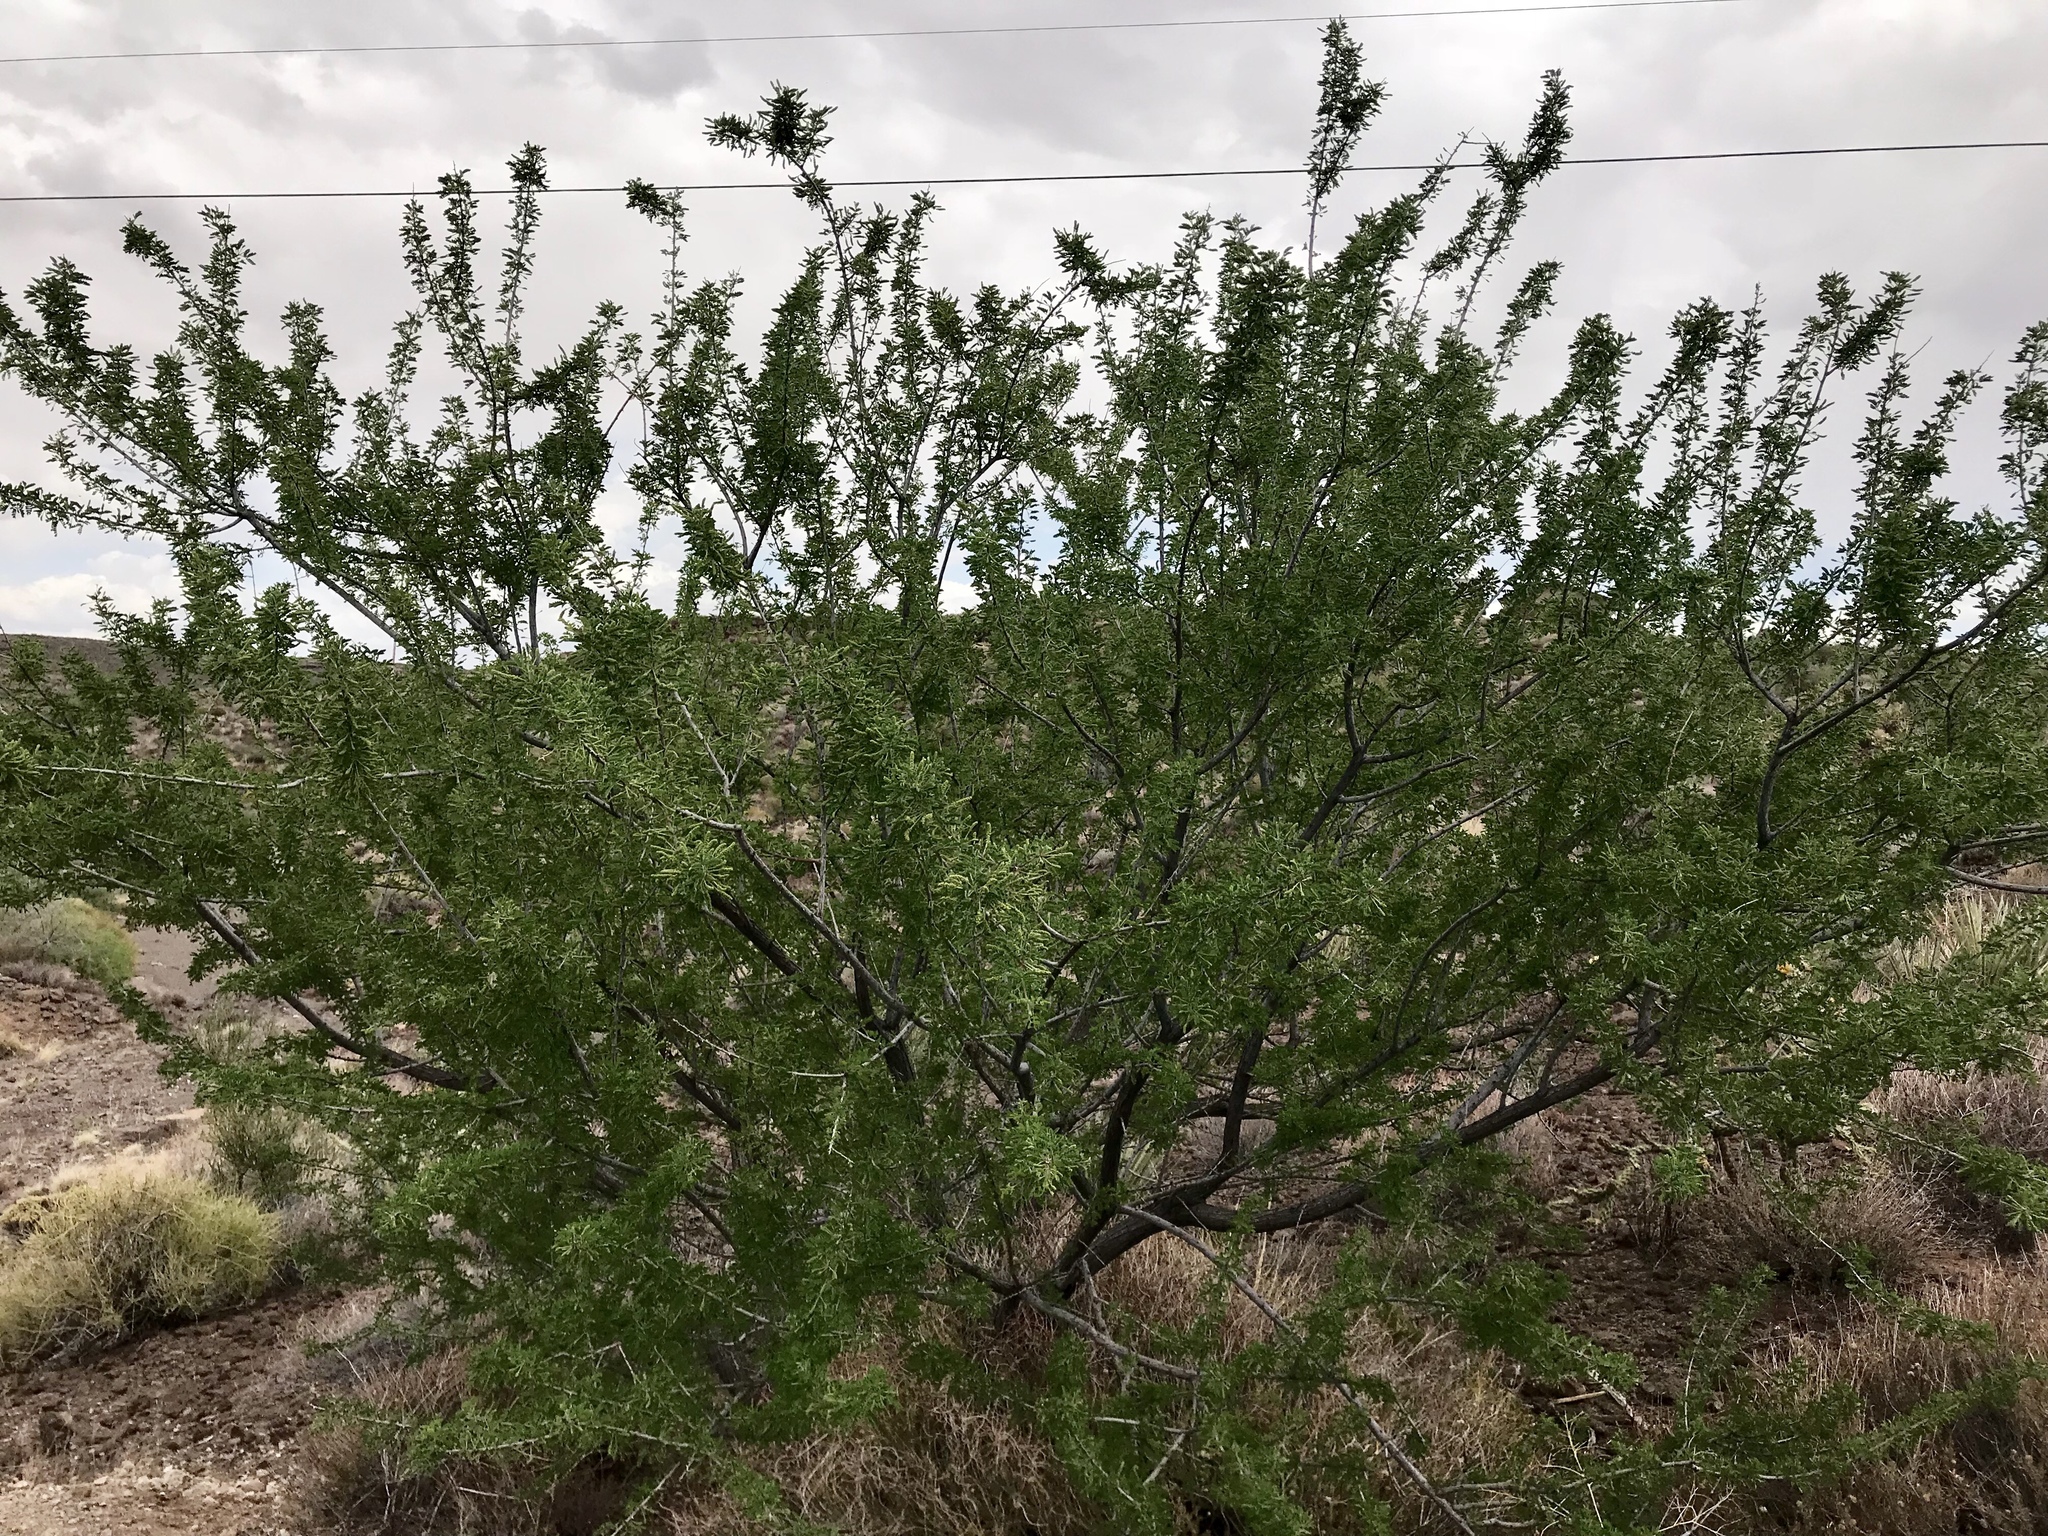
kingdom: Plantae
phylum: Tracheophyta
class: Magnoliopsida
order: Fabales
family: Fabaceae
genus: Senegalia
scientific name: Senegalia greggii
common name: Texas-mimosa
